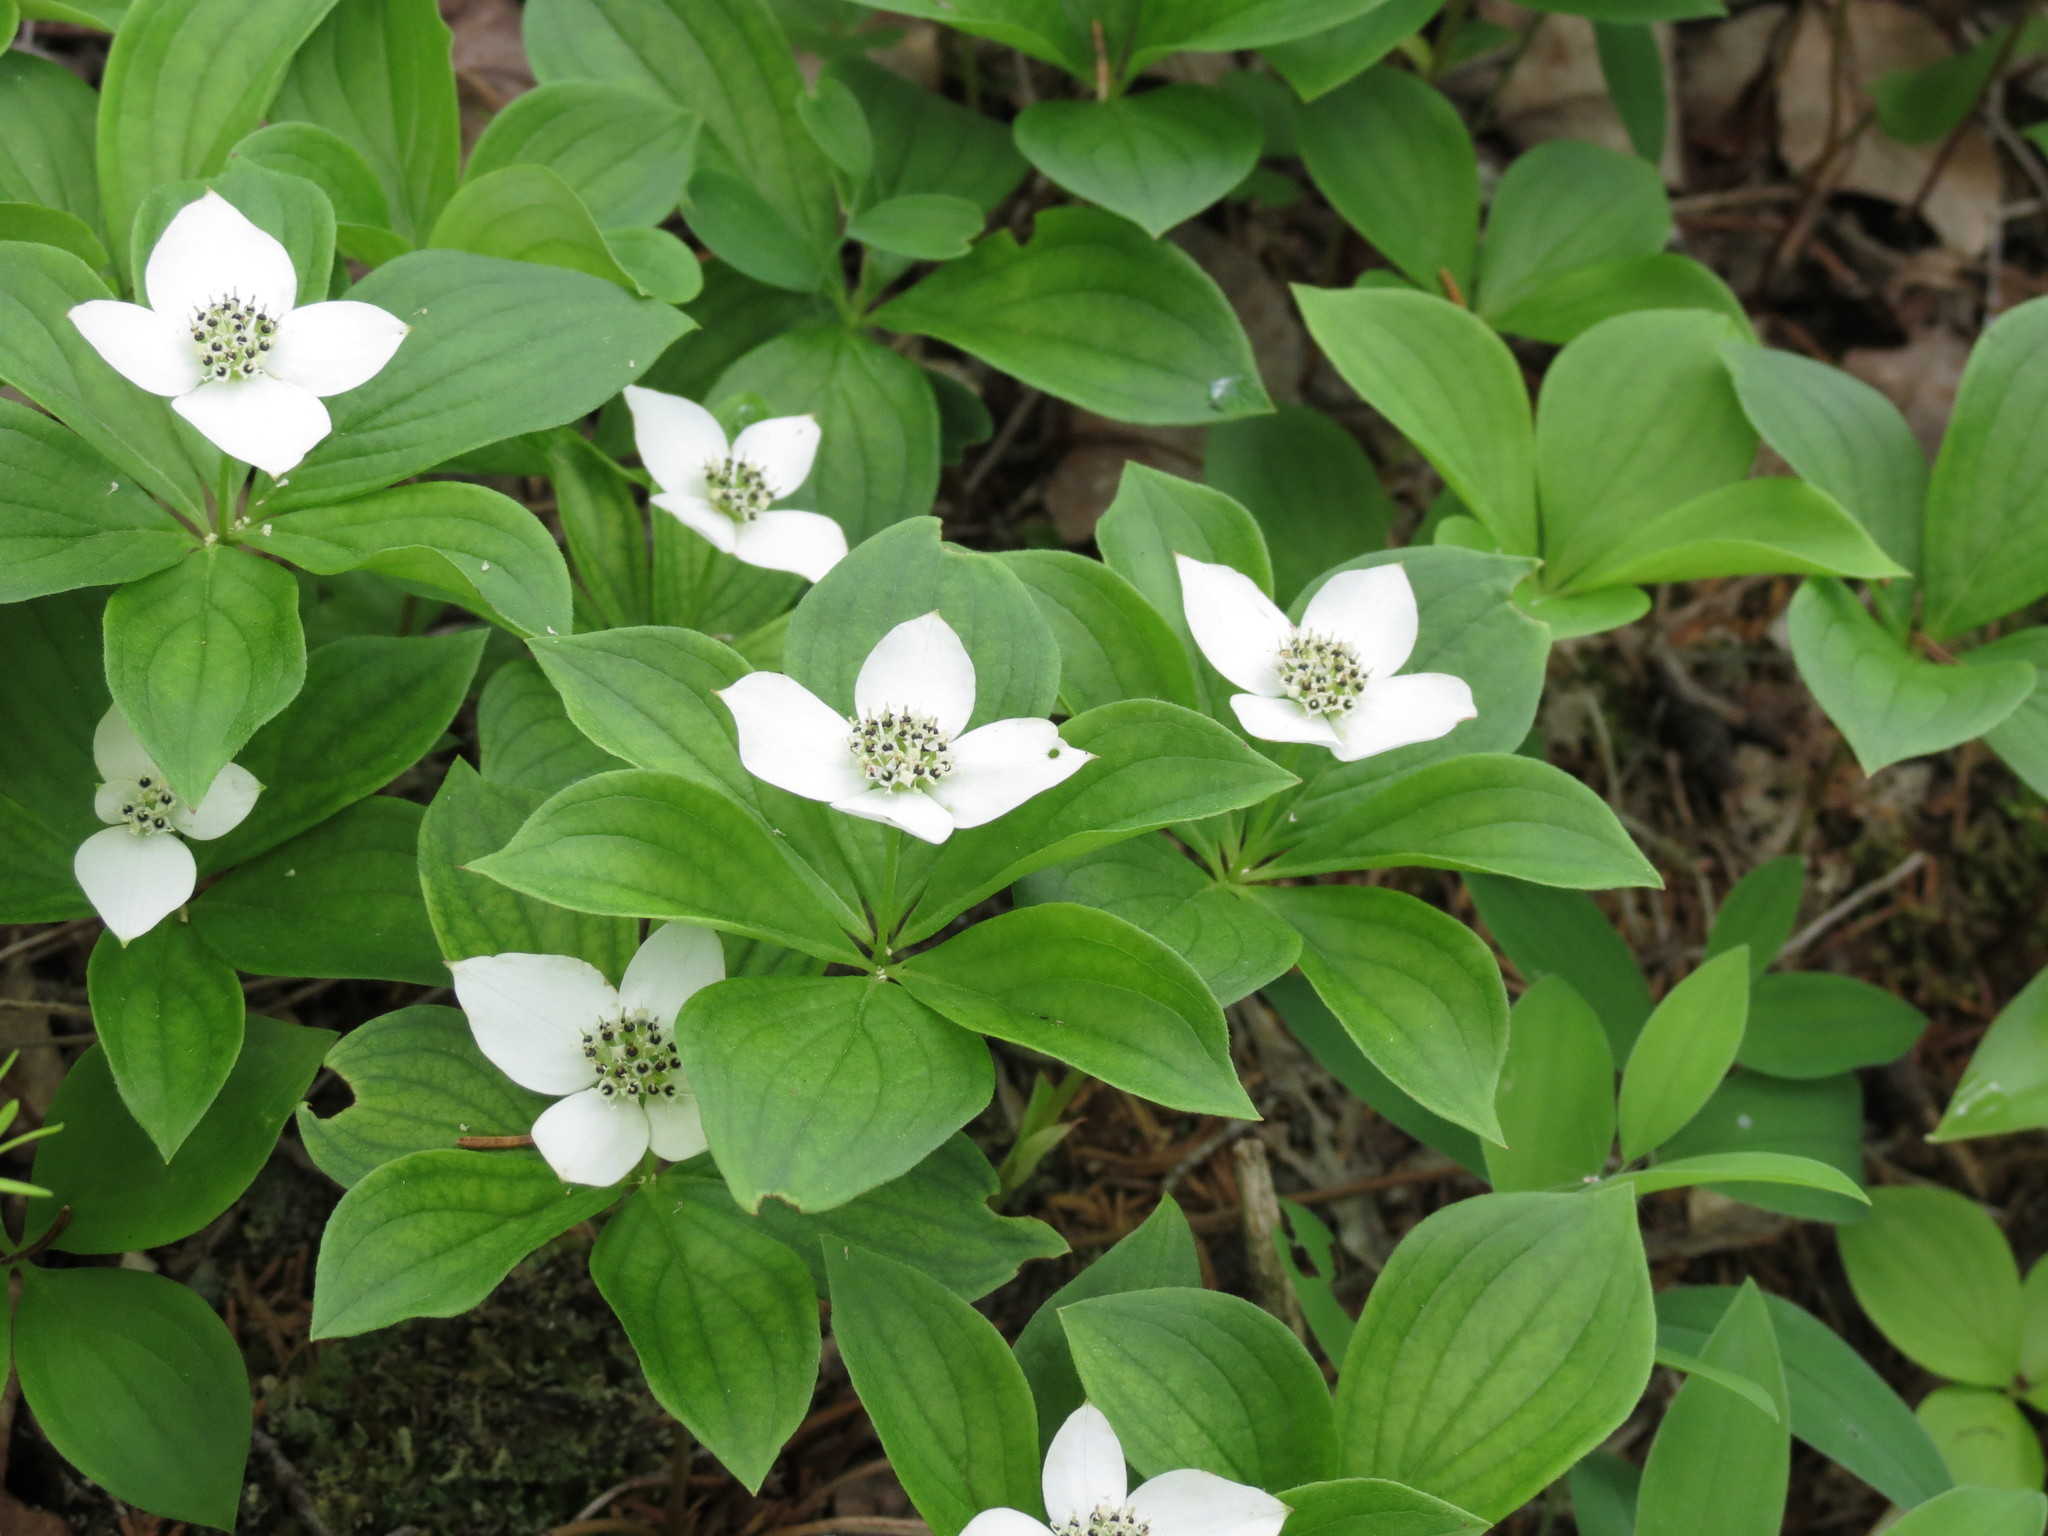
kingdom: Plantae
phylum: Tracheophyta
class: Magnoliopsida
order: Cornales
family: Cornaceae
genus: Cornus
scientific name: Cornus canadensis
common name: Creeping dogwood
